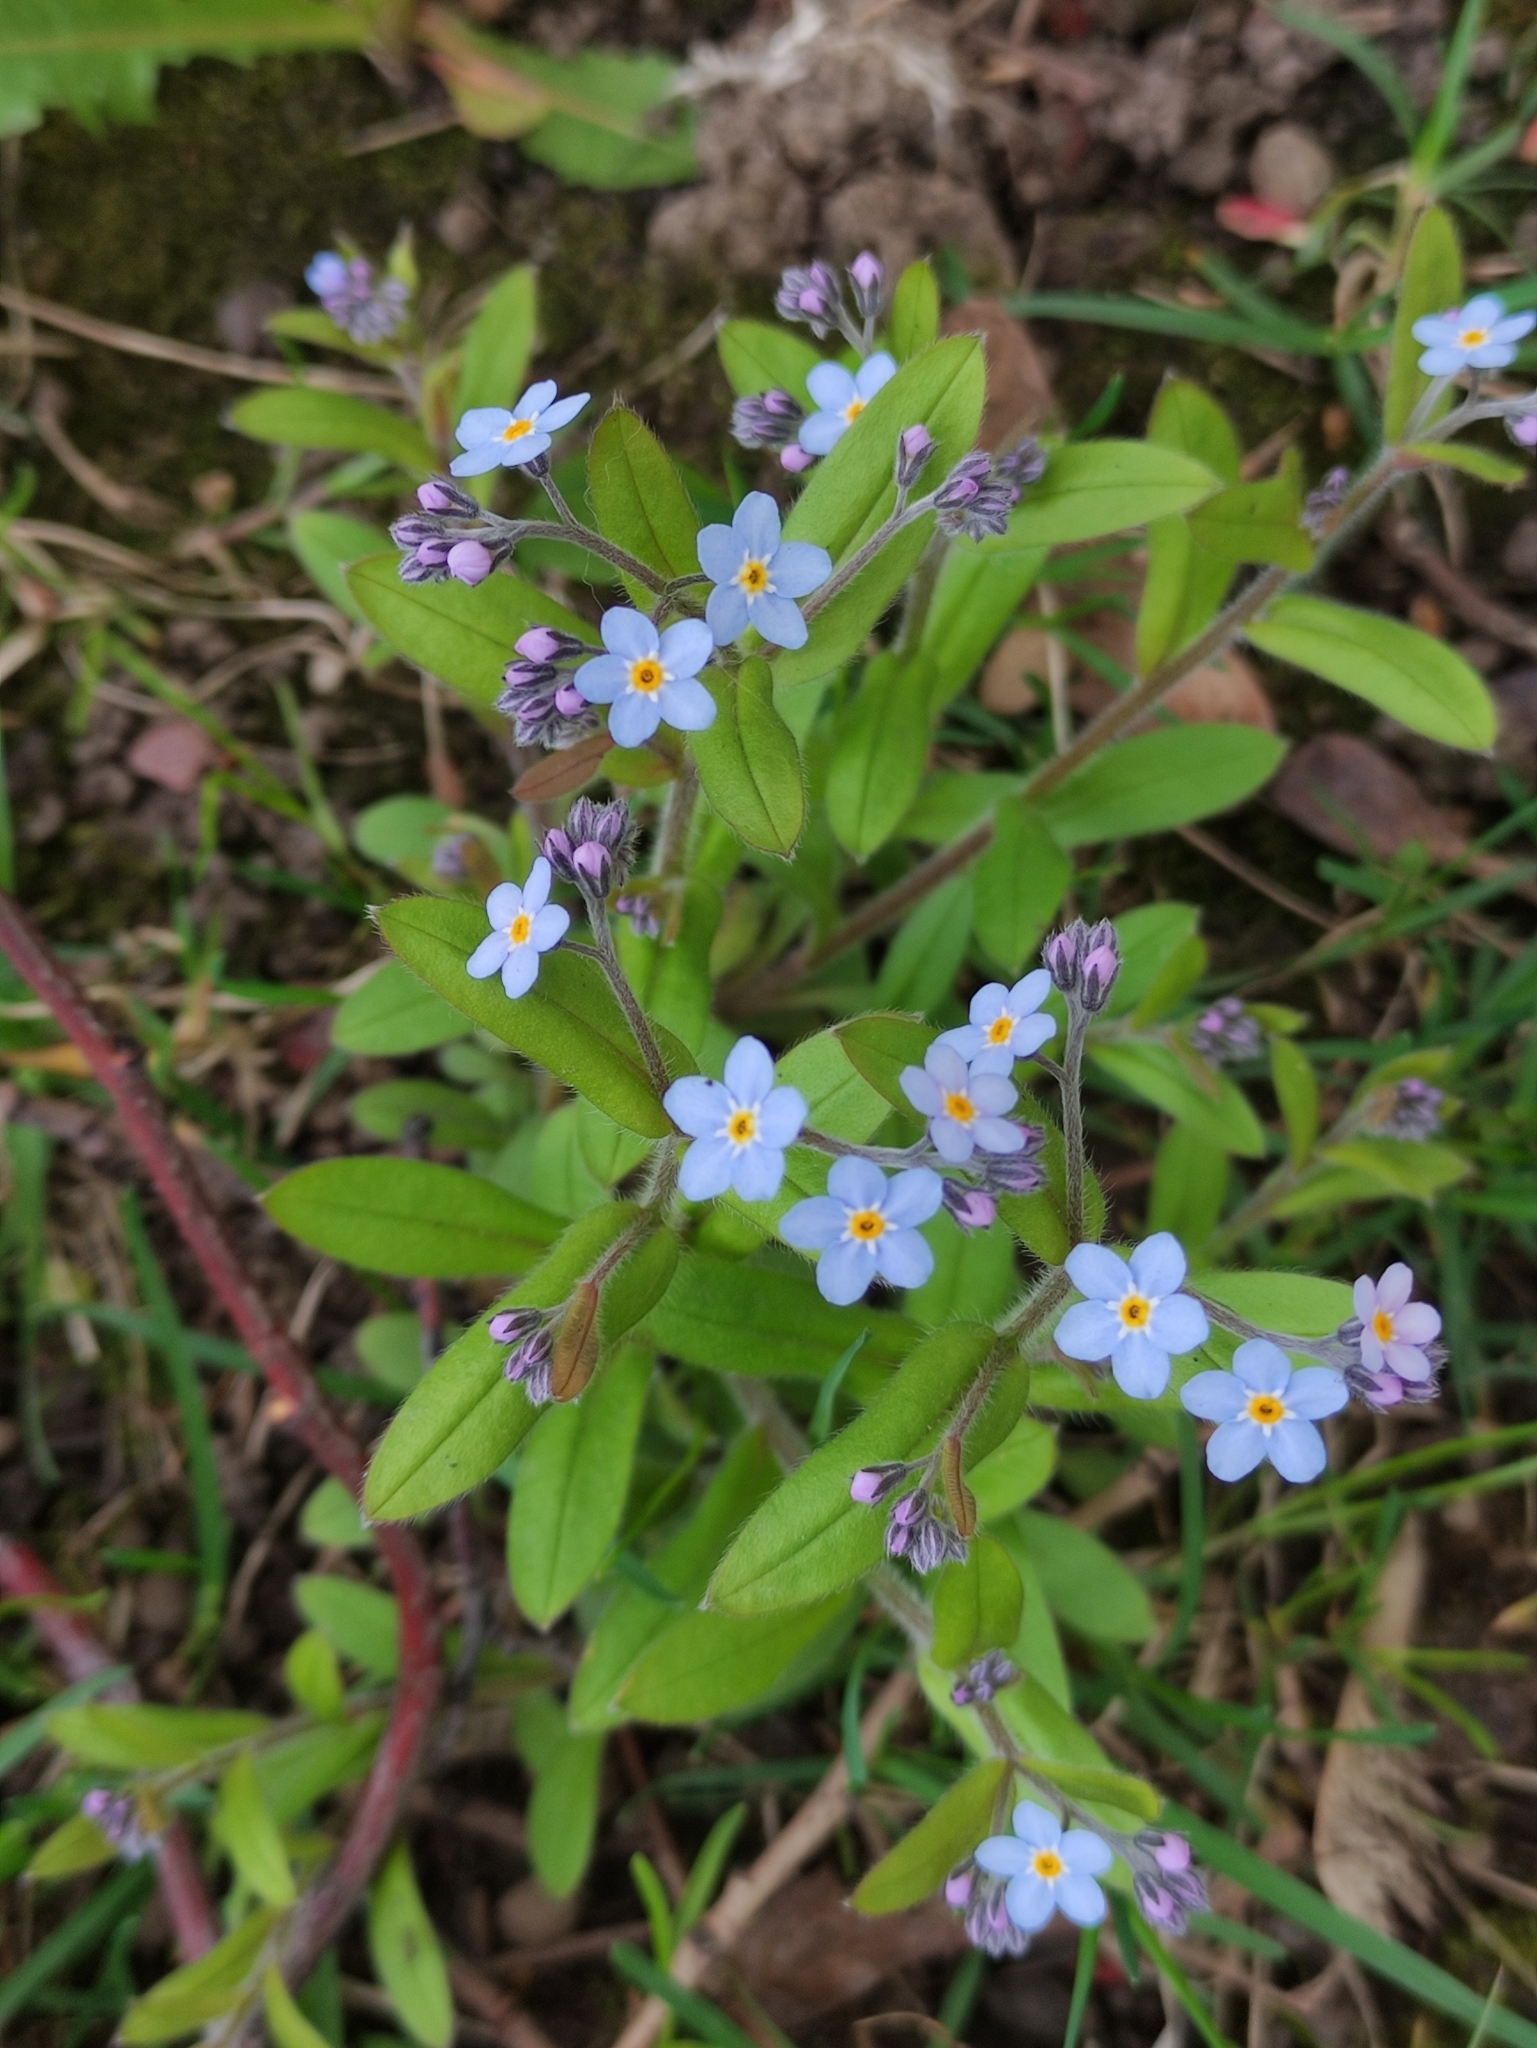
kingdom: Plantae
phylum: Tracheophyta
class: Magnoliopsida
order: Boraginales
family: Boraginaceae
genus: Myosotis
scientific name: Myosotis sylvatica
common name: Wood forget-me-not
